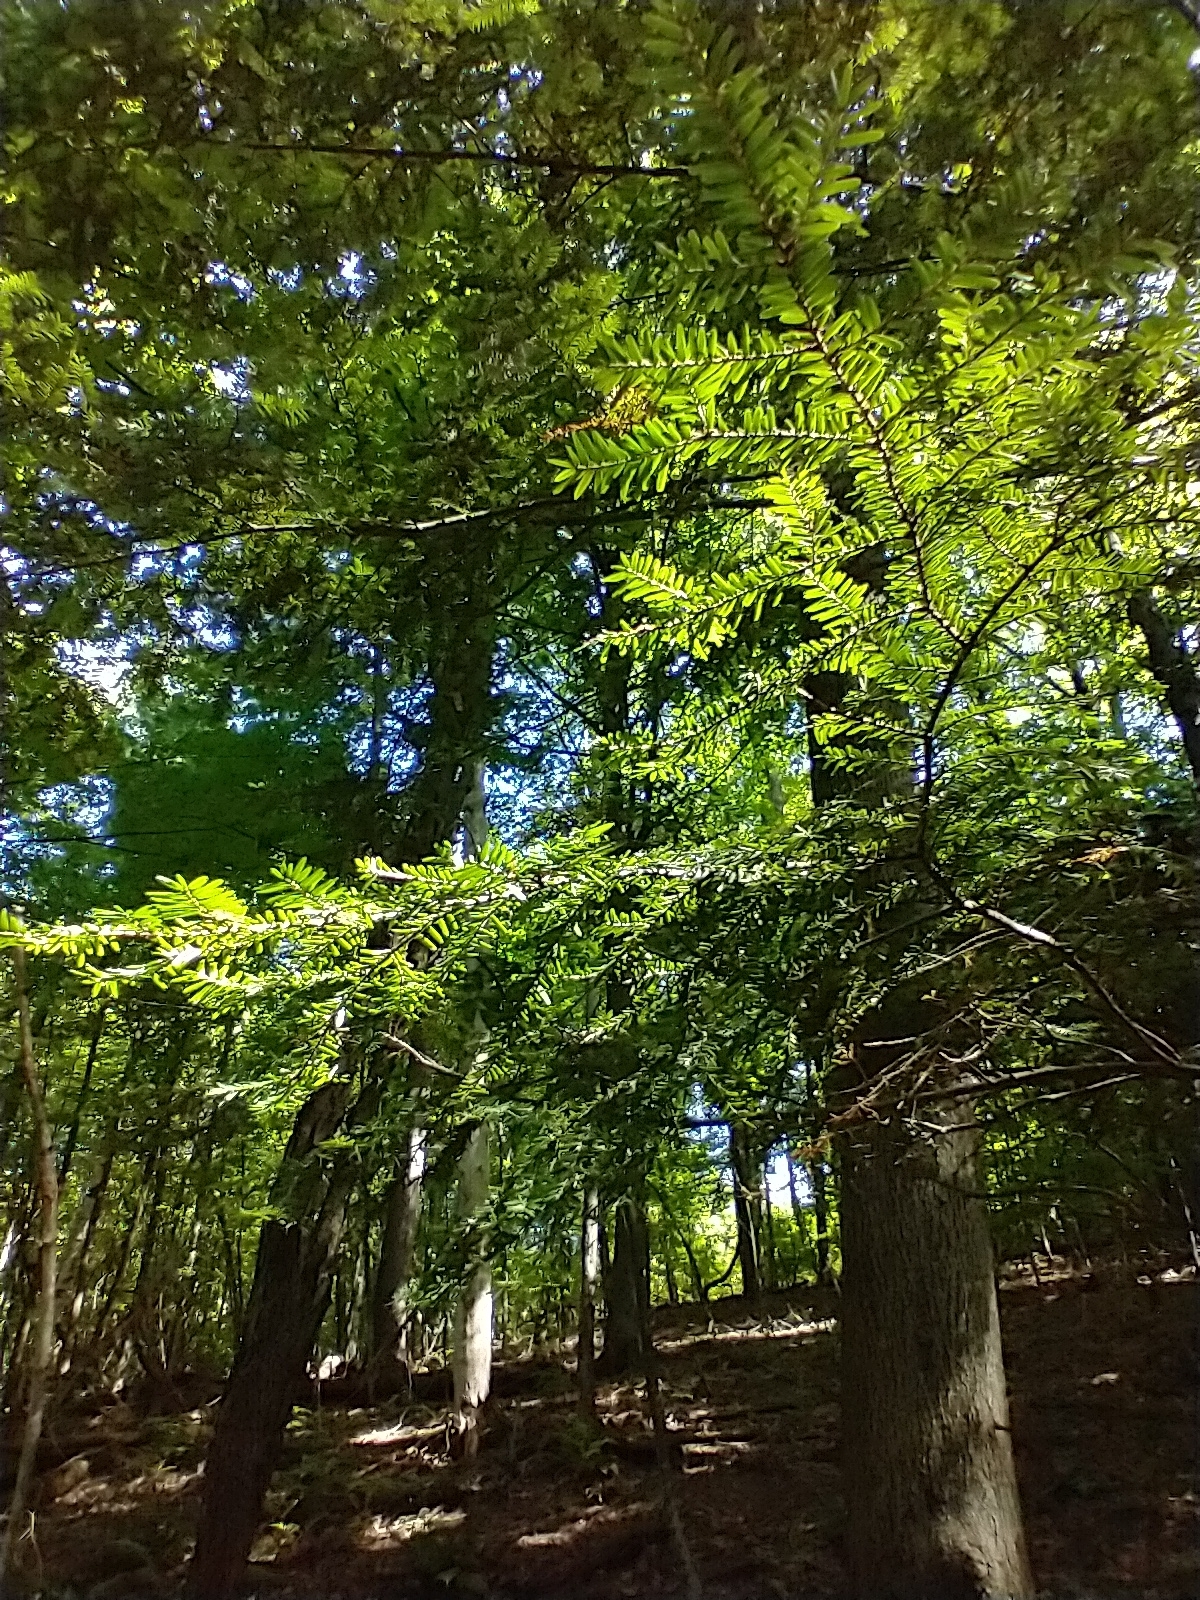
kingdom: Plantae
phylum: Tracheophyta
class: Pinopsida
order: Pinales
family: Pinaceae
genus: Tsuga
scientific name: Tsuga canadensis
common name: Eastern hemlock
